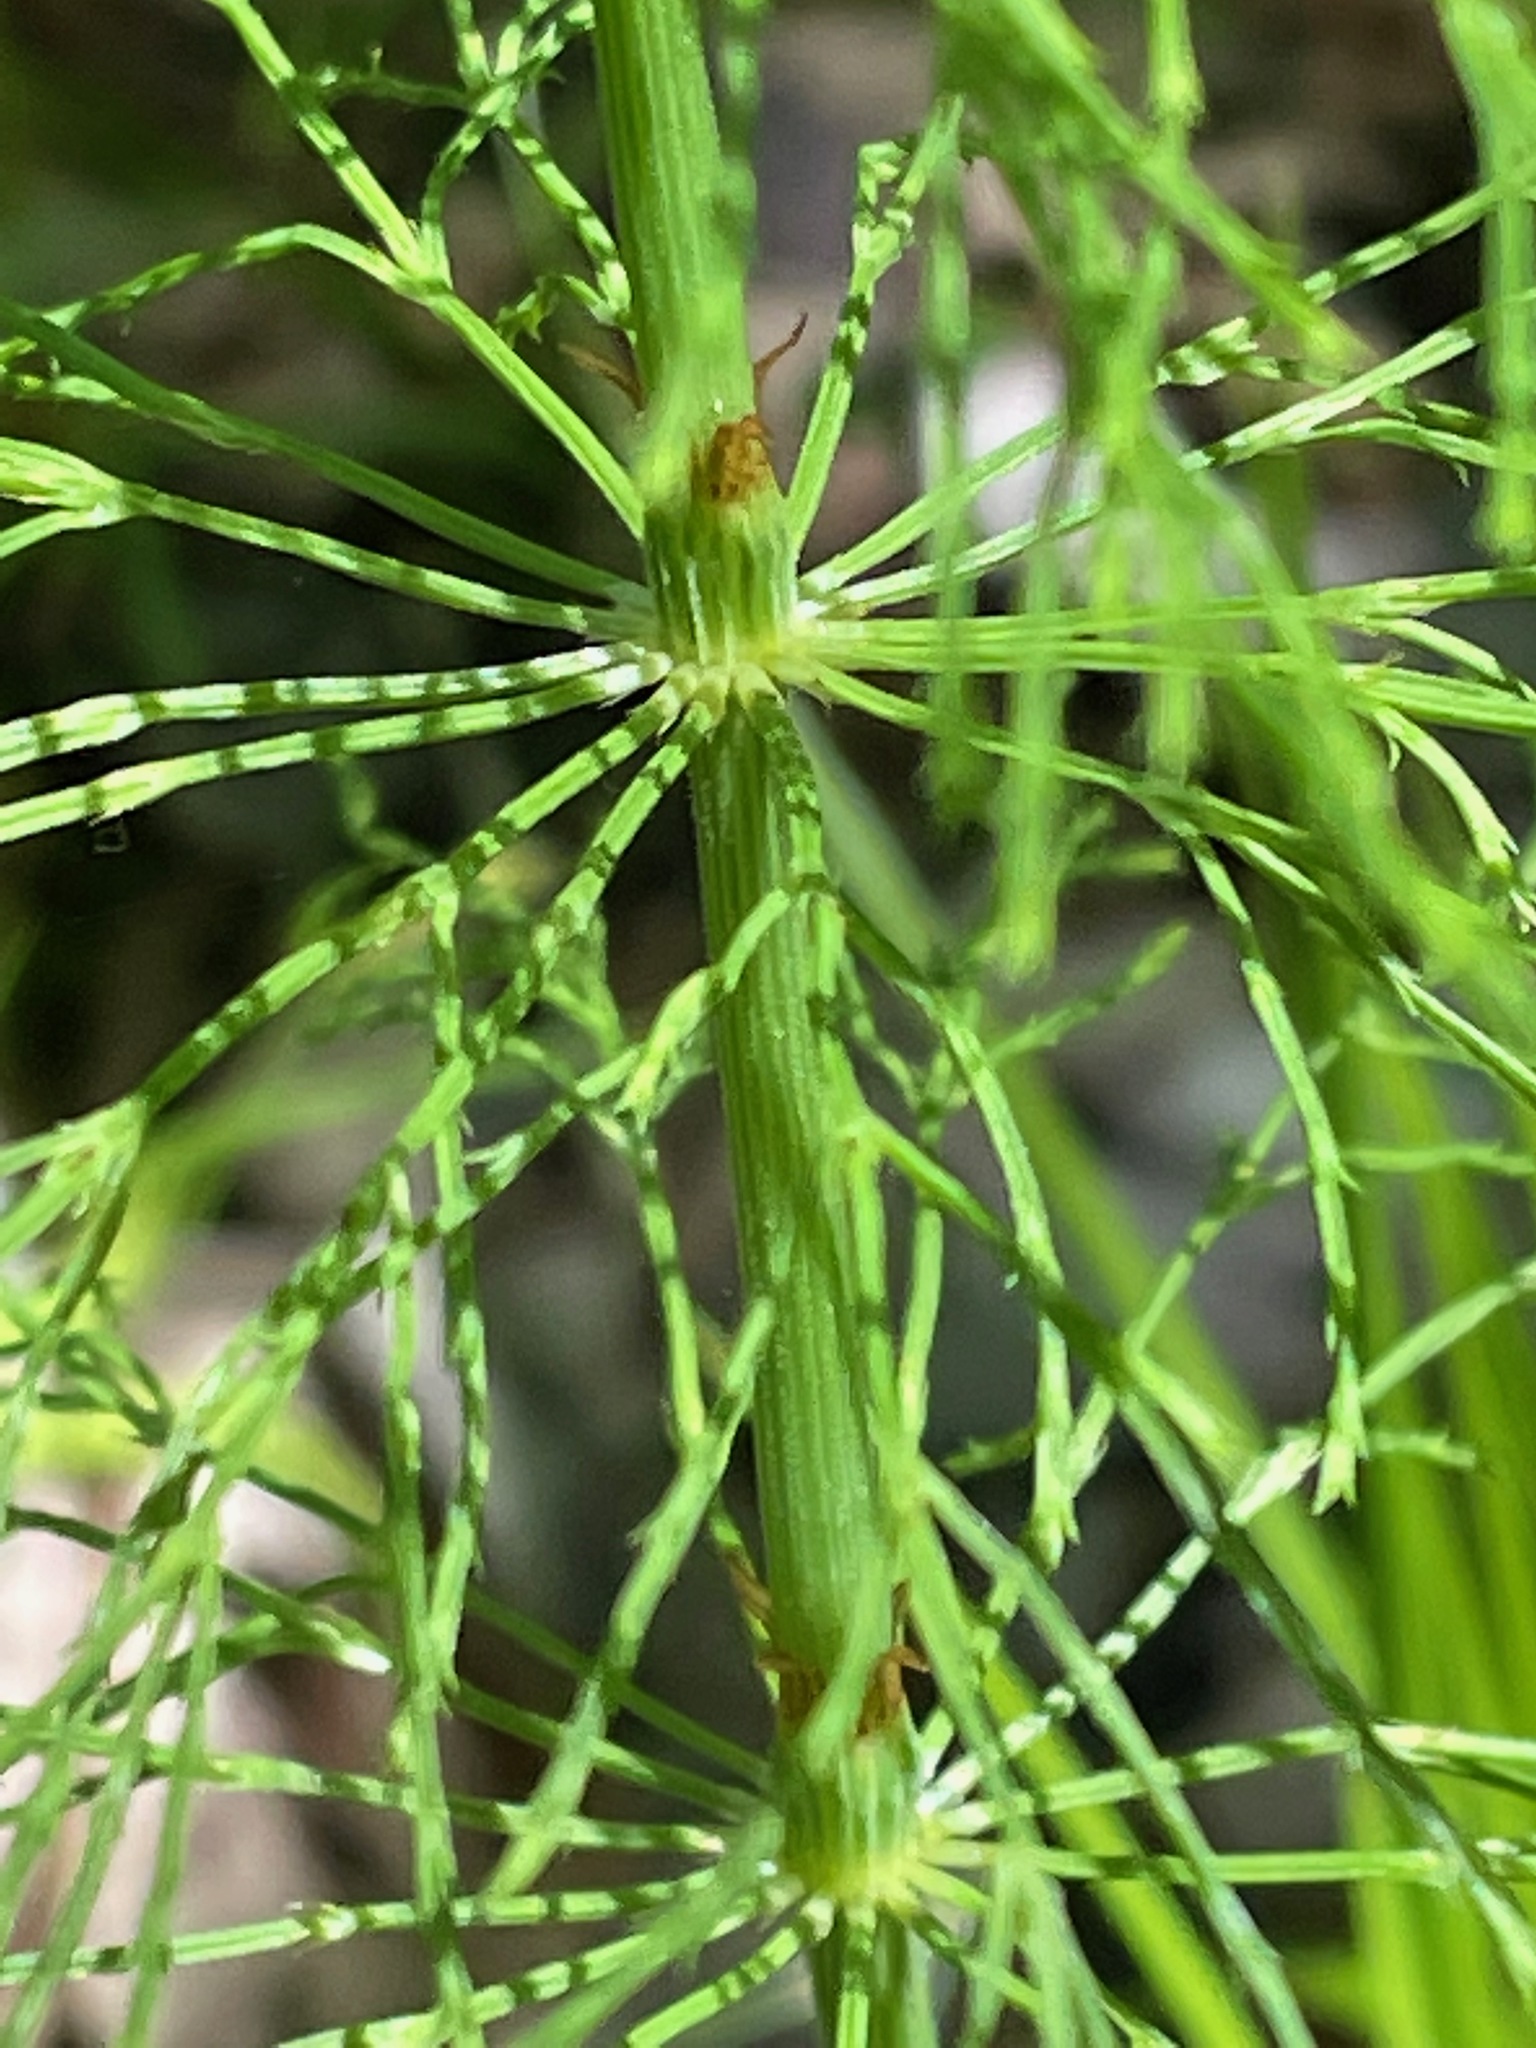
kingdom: Plantae
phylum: Tracheophyta
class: Polypodiopsida
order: Equisetales
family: Equisetaceae
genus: Equisetum
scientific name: Equisetum sylvaticum
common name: Wood horsetail
